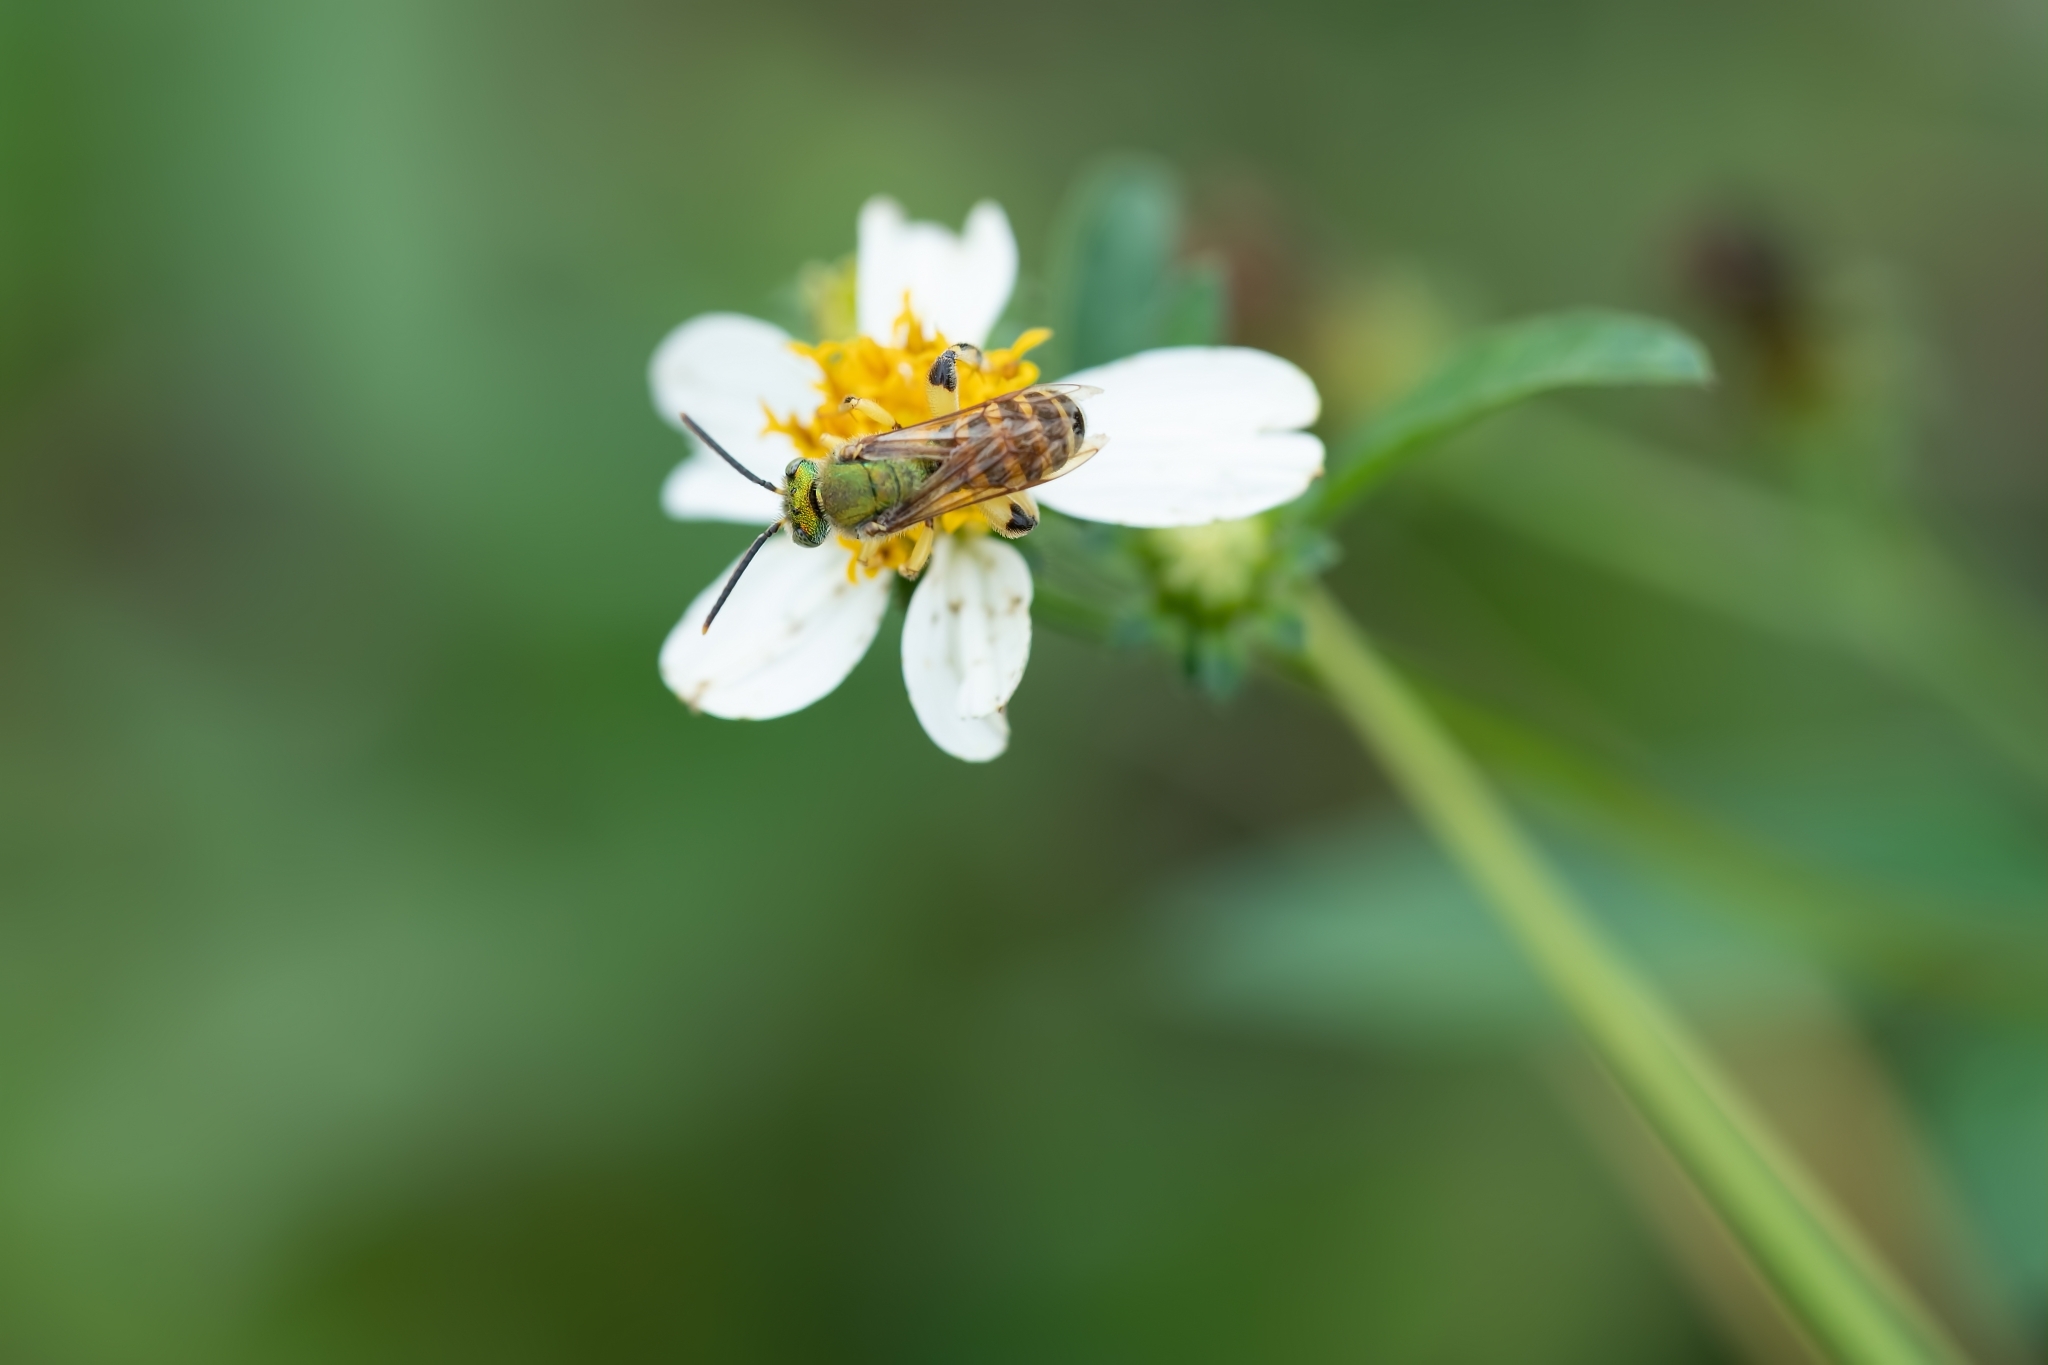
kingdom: Animalia
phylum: Arthropoda
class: Insecta
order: Hymenoptera
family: Halictidae
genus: Agapostemon
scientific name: Agapostemon splendens
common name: Brown-winged striped sweat bee
